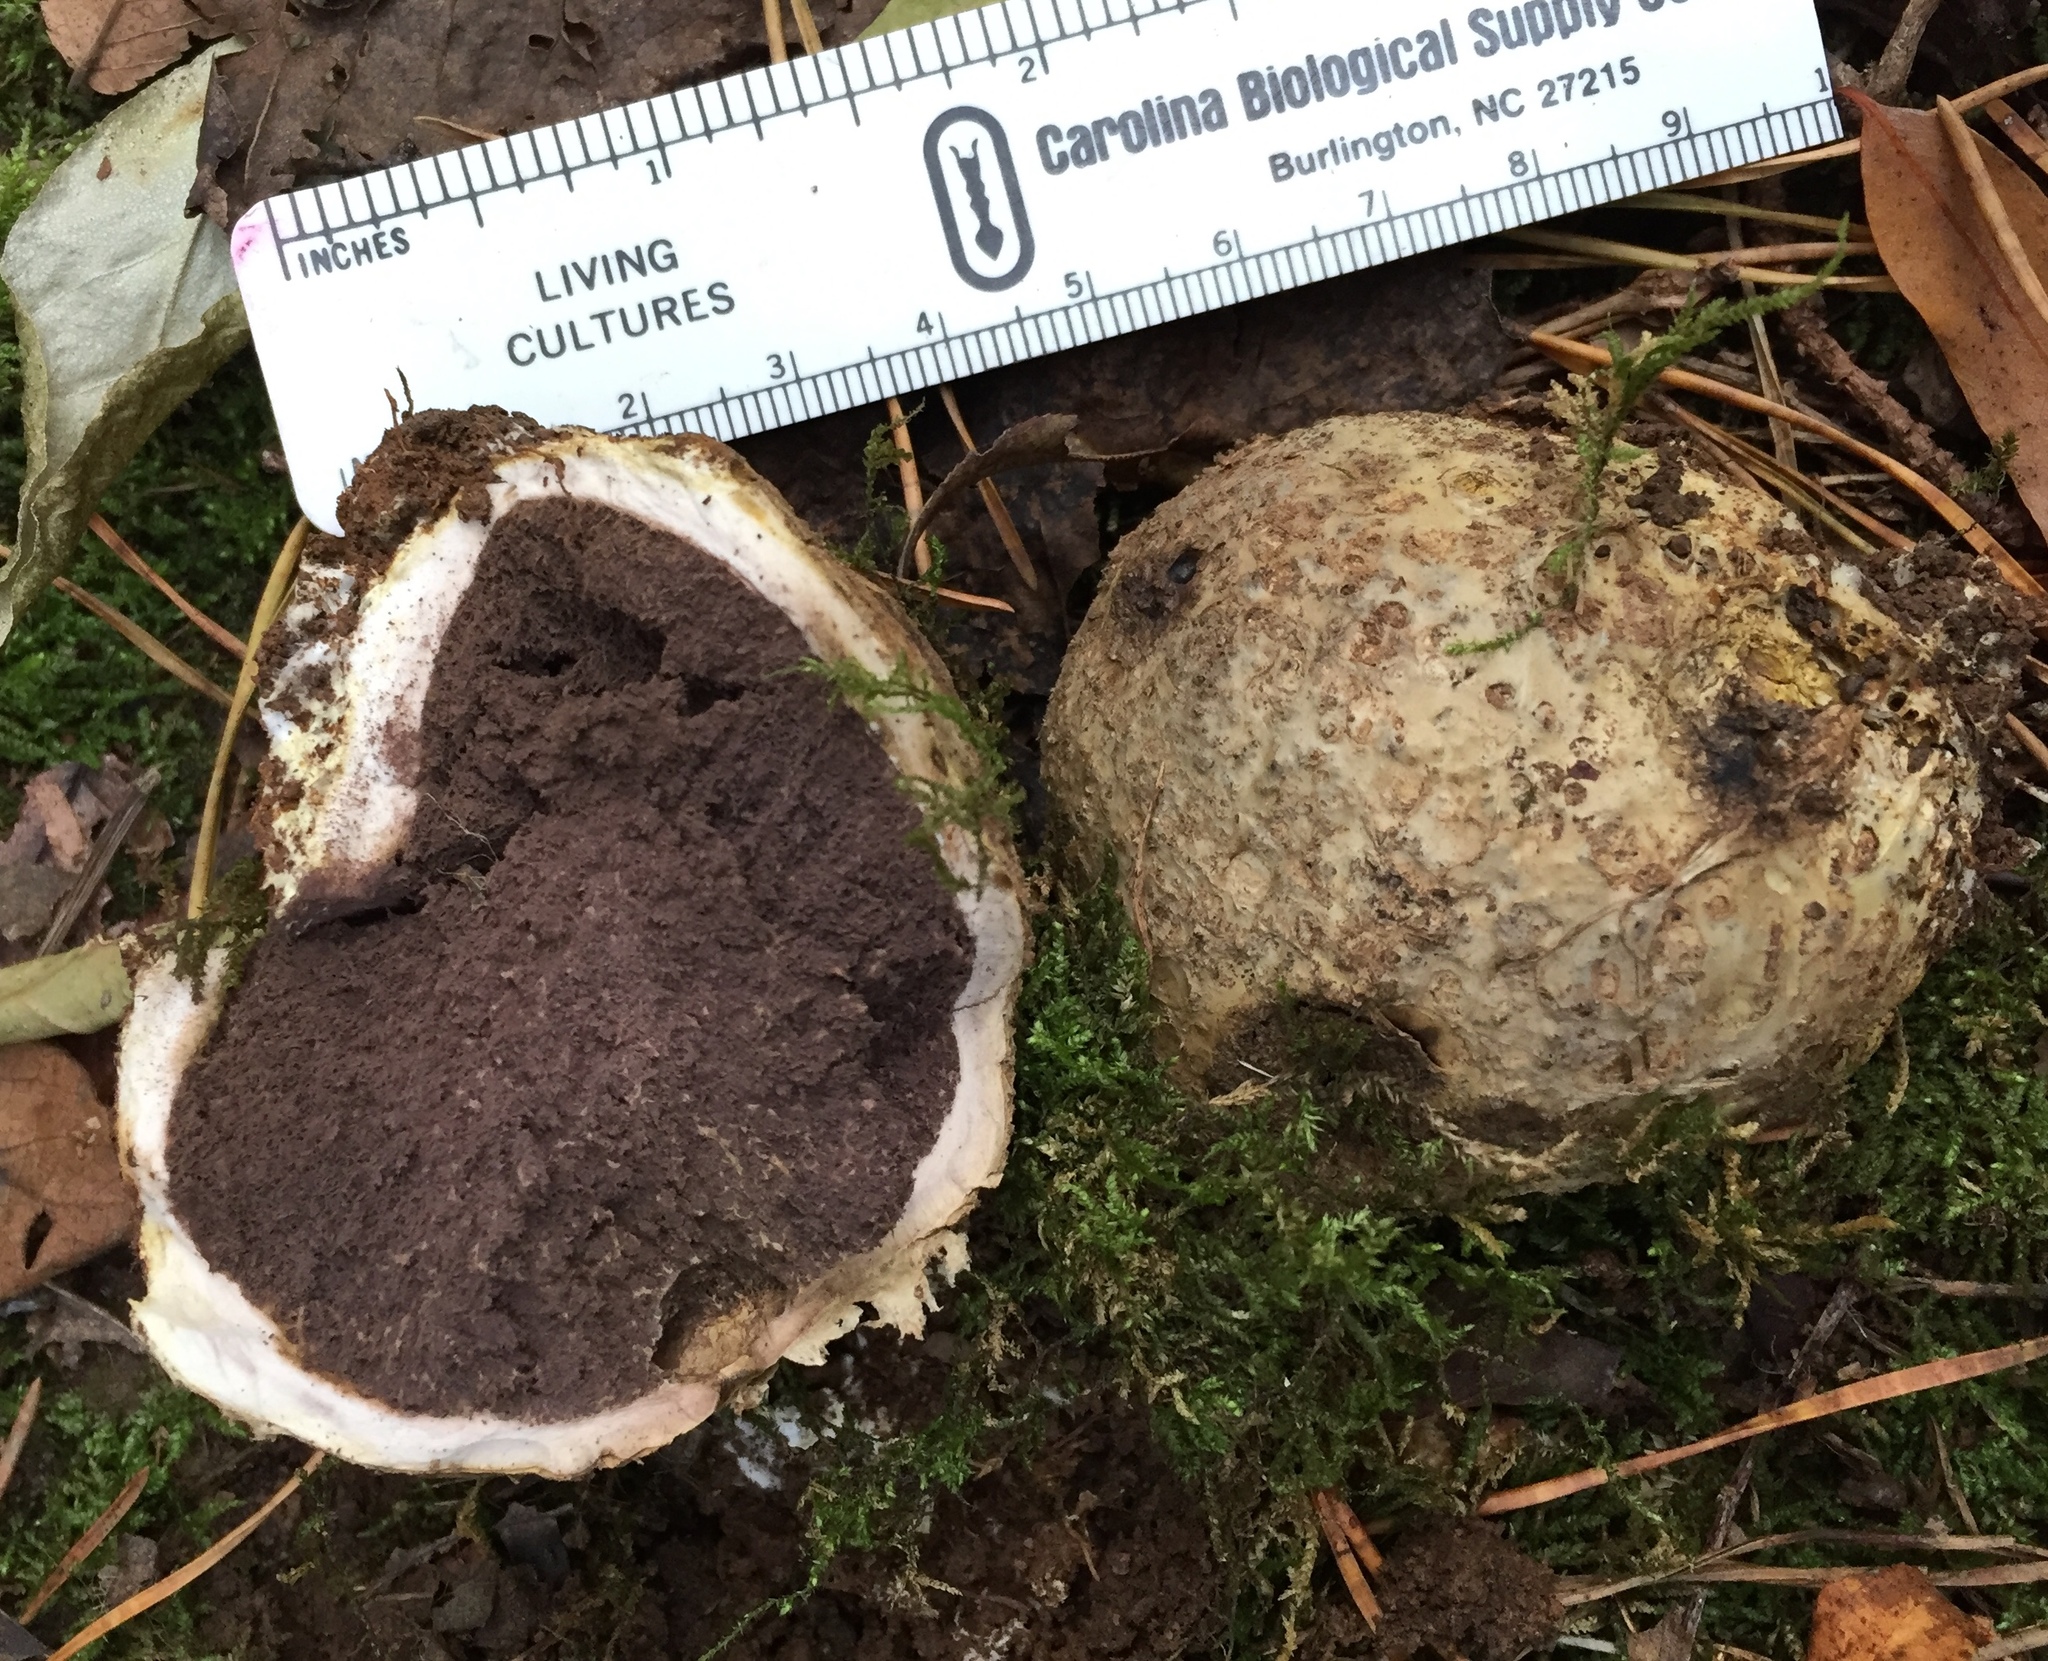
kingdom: Fungi
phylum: Basidiomycota
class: Agaricomycetes
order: Boletales
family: Sclerodermataceae
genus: Scleroderma
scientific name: Scleroderma citrinum
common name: Common earthball
